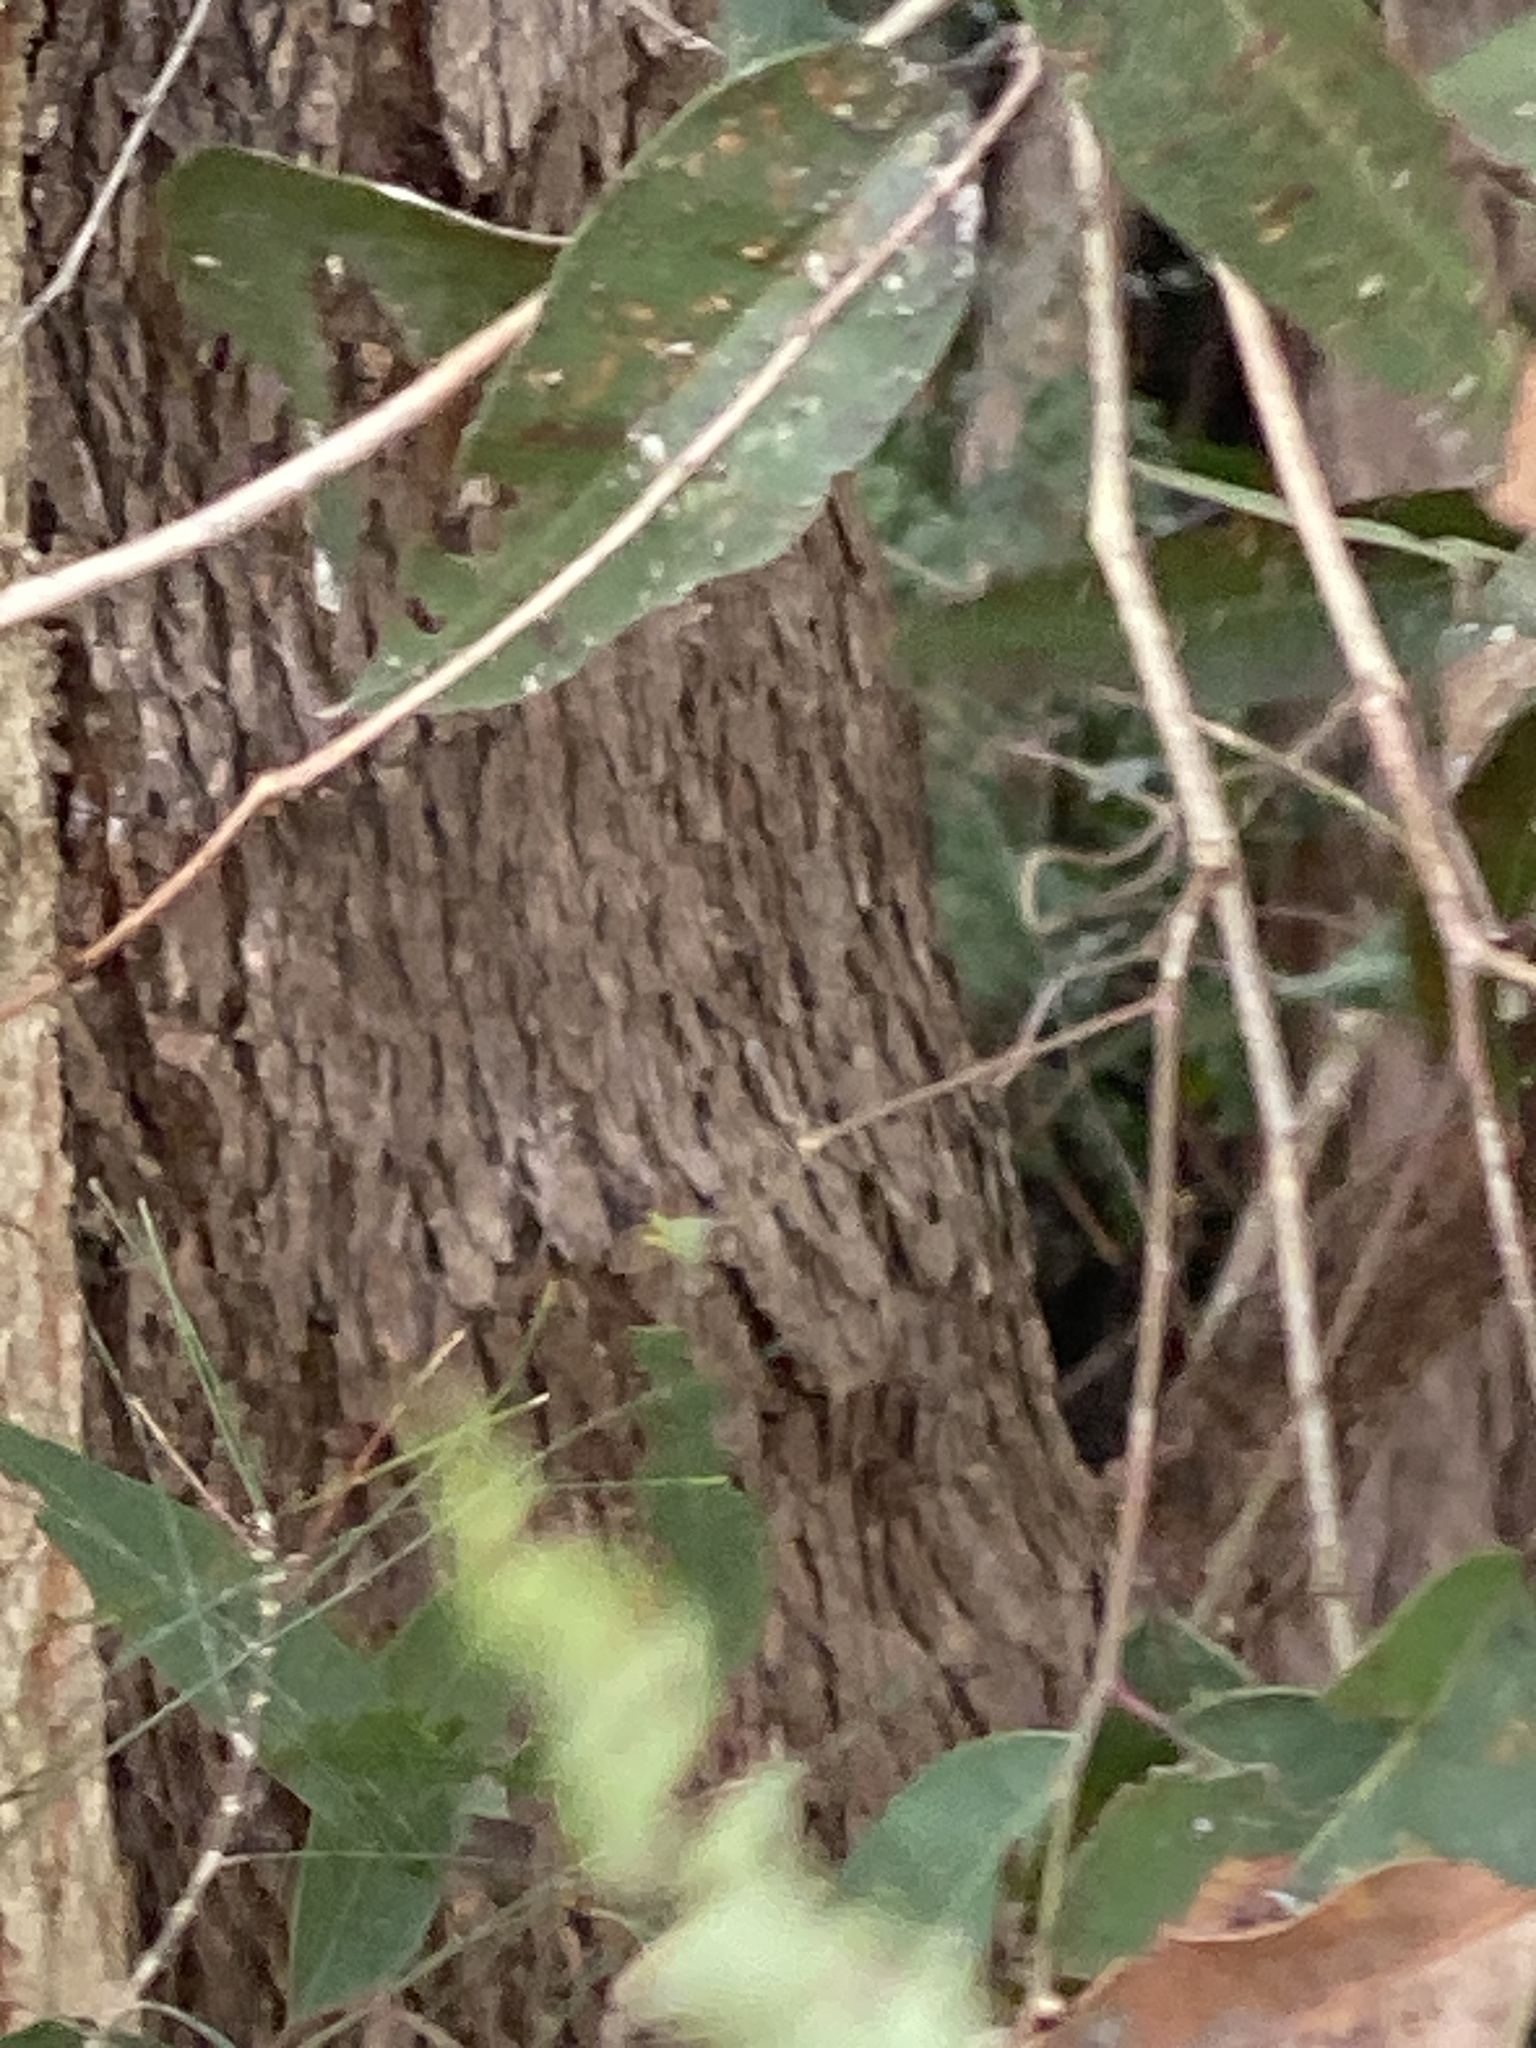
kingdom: Plantae
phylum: Tracheophyta
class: Magnoliopsida
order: Myrtales
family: Myrtaceae
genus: Lophostemon
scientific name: Lophostemon confertus
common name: Brisbane box
